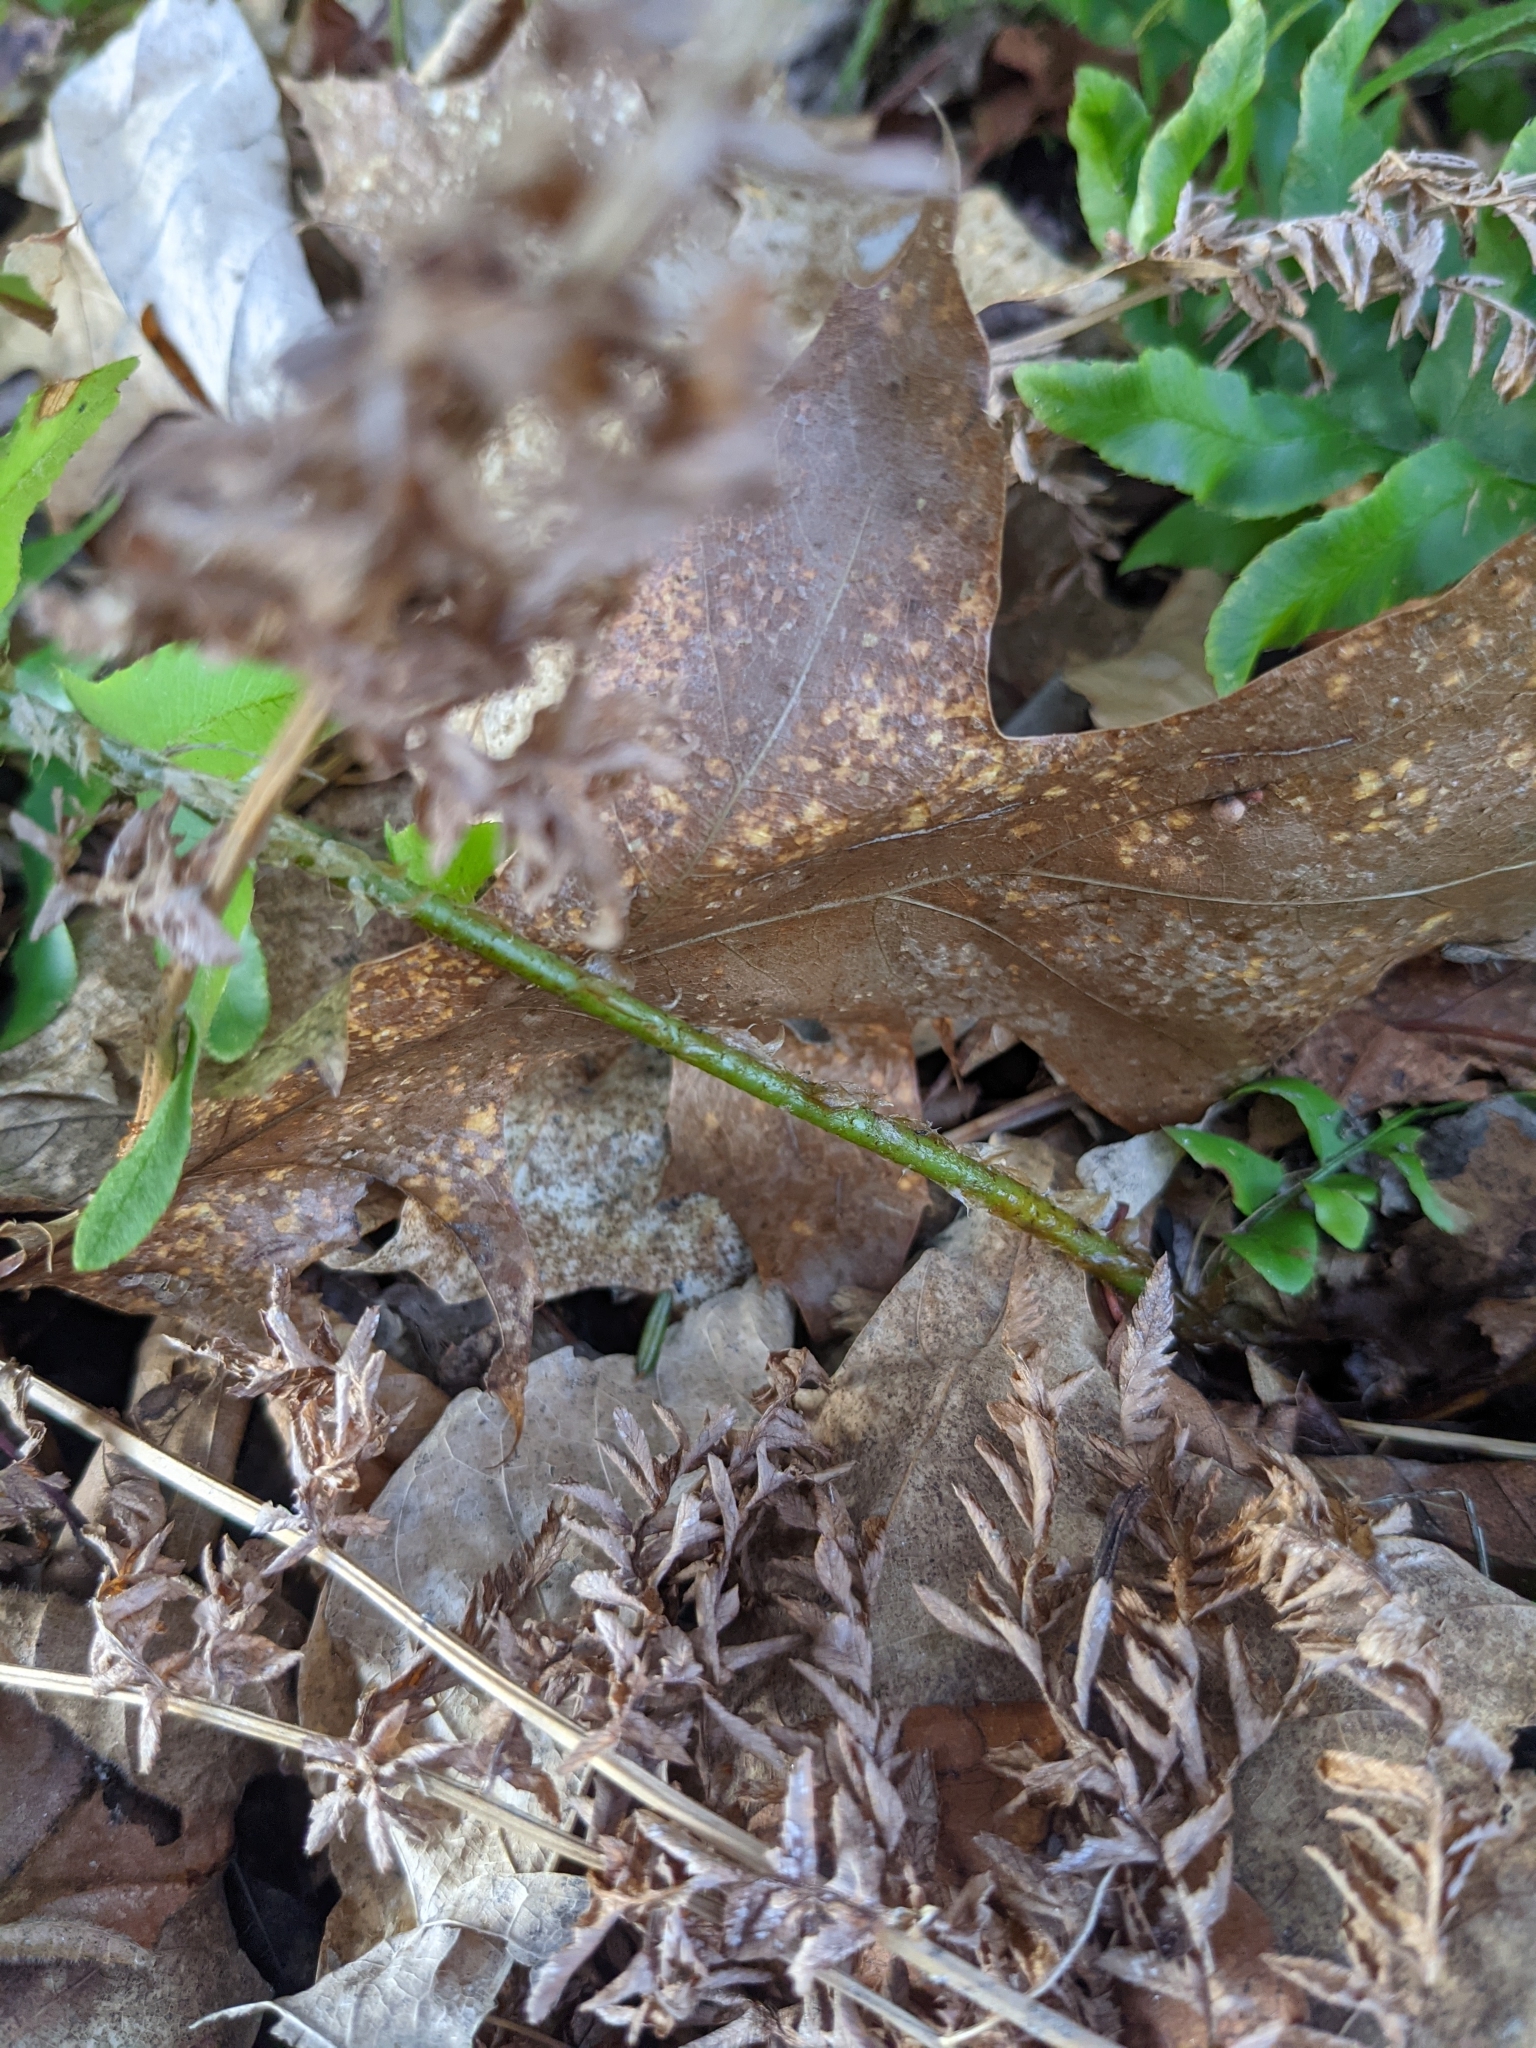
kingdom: Plantae
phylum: Tracheophyta
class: Polypodiopsida
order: Polypodiales
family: Dryopteridaceae
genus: Polystichum
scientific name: Polystichum acrostichoides
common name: Christmas fern
